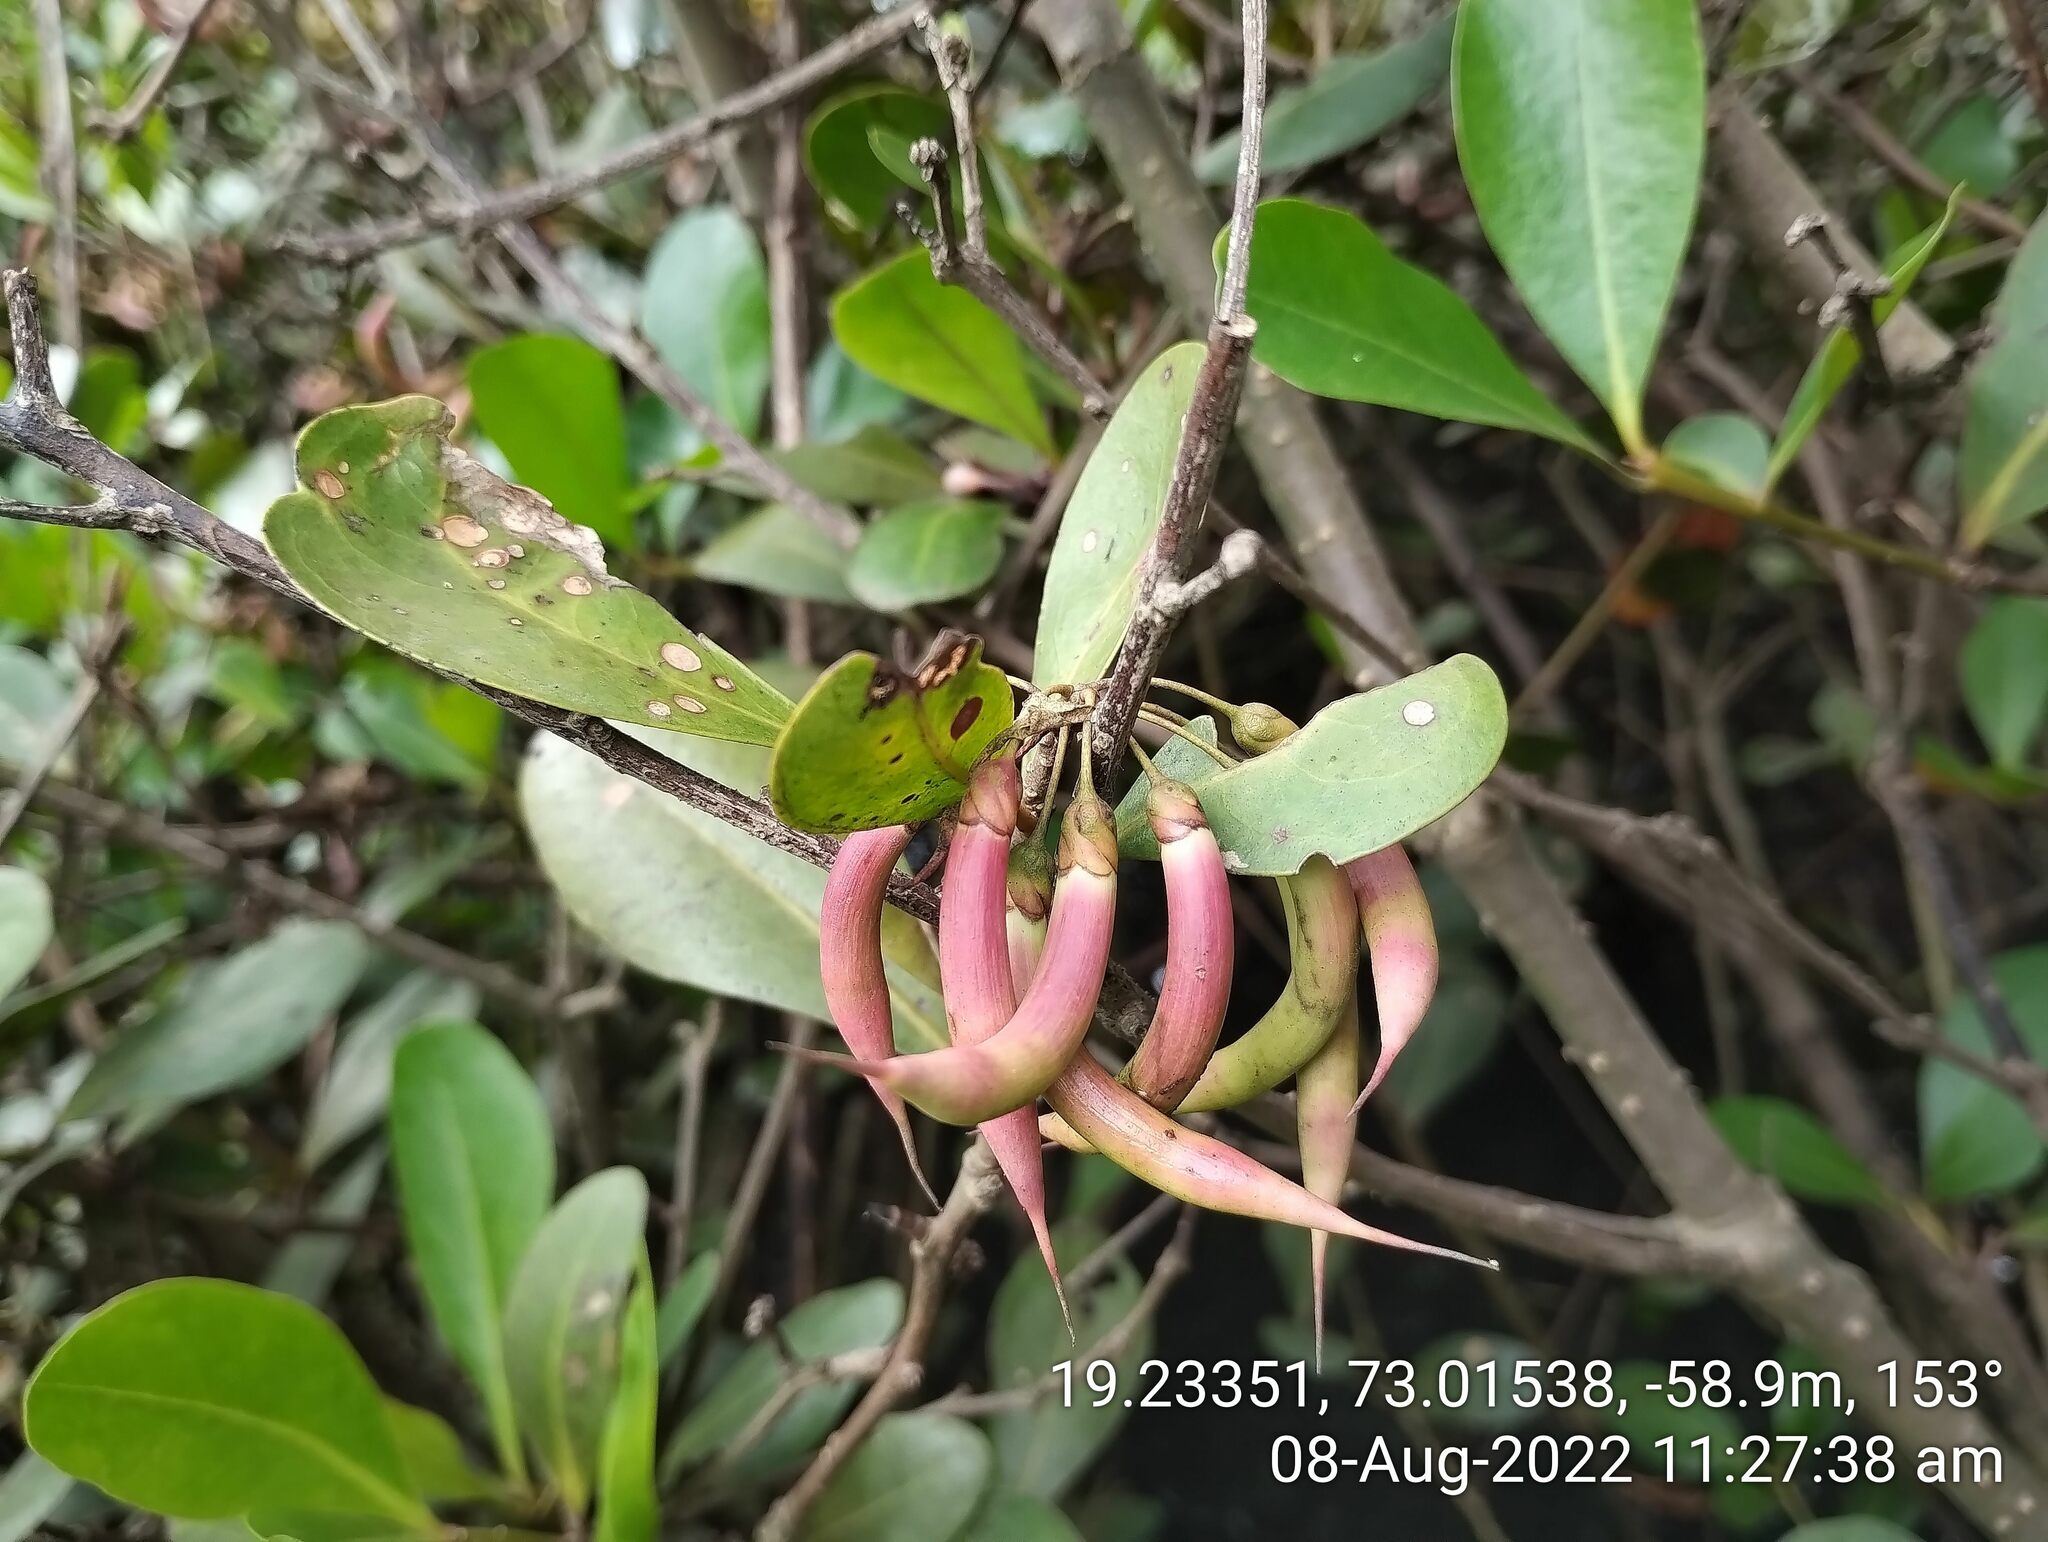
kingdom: Plantae
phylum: Tracheophyta
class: Magnoliopsida
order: Ericales
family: Primulaceae
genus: Aegiceras
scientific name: Aegiceras corniculatum
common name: River mangrove
